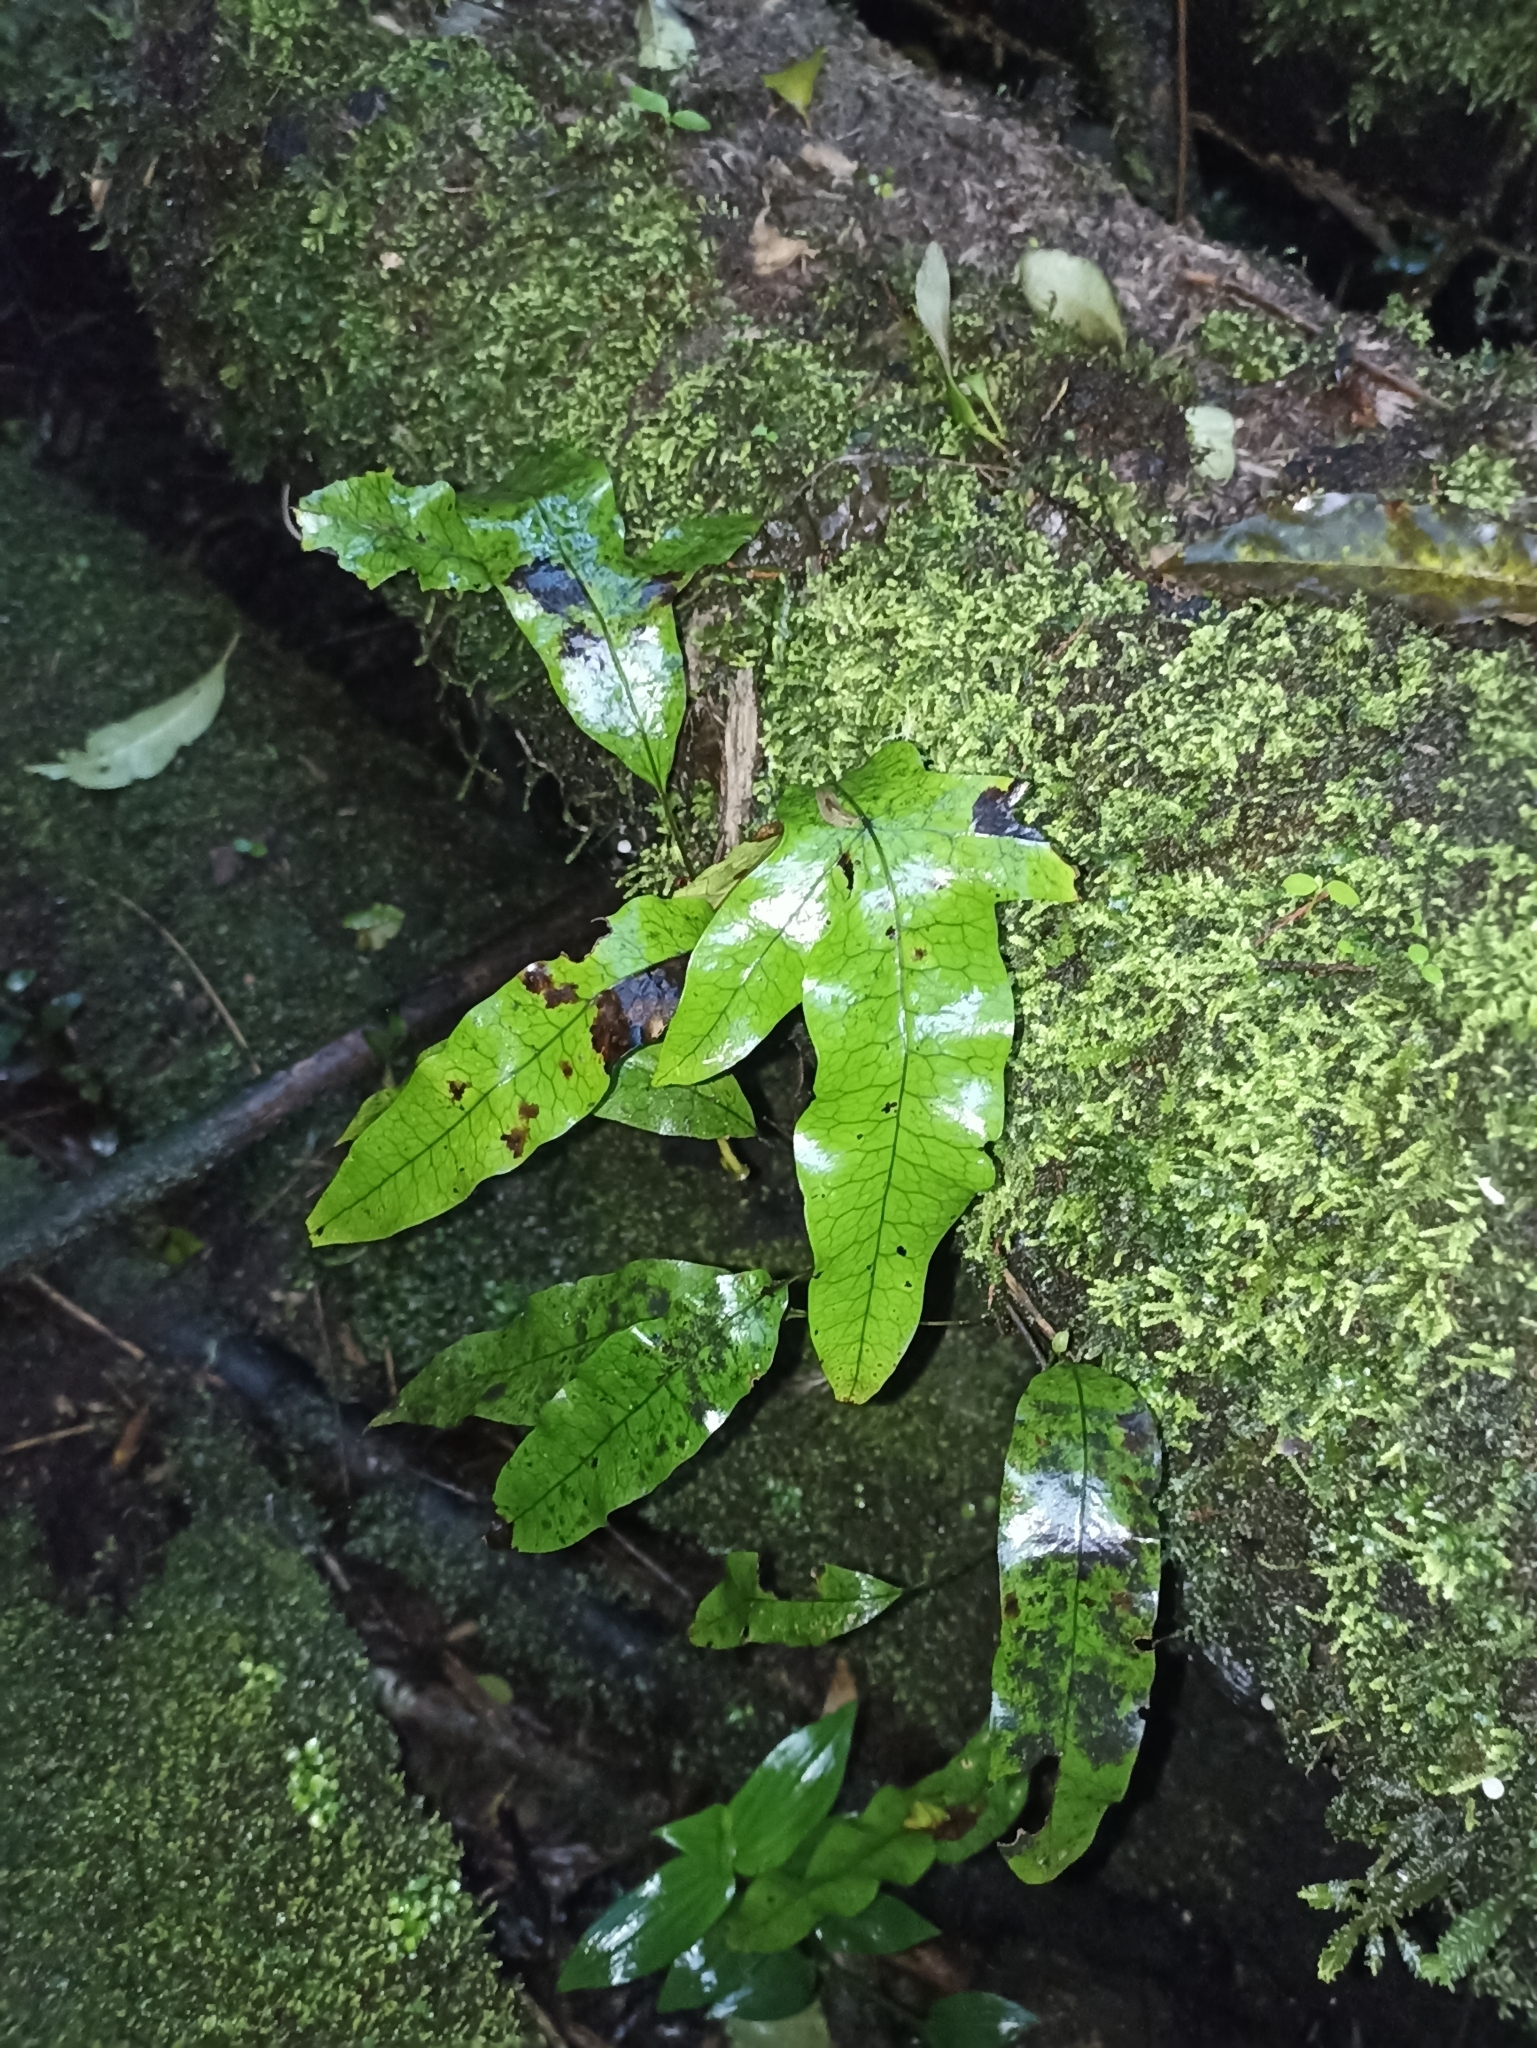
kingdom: Plantae
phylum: Tracheophyta
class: Polypodiopsida
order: Polypodiales
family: Polypodiaceae
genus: Lecanopteris
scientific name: Lecanopteris pustulata
